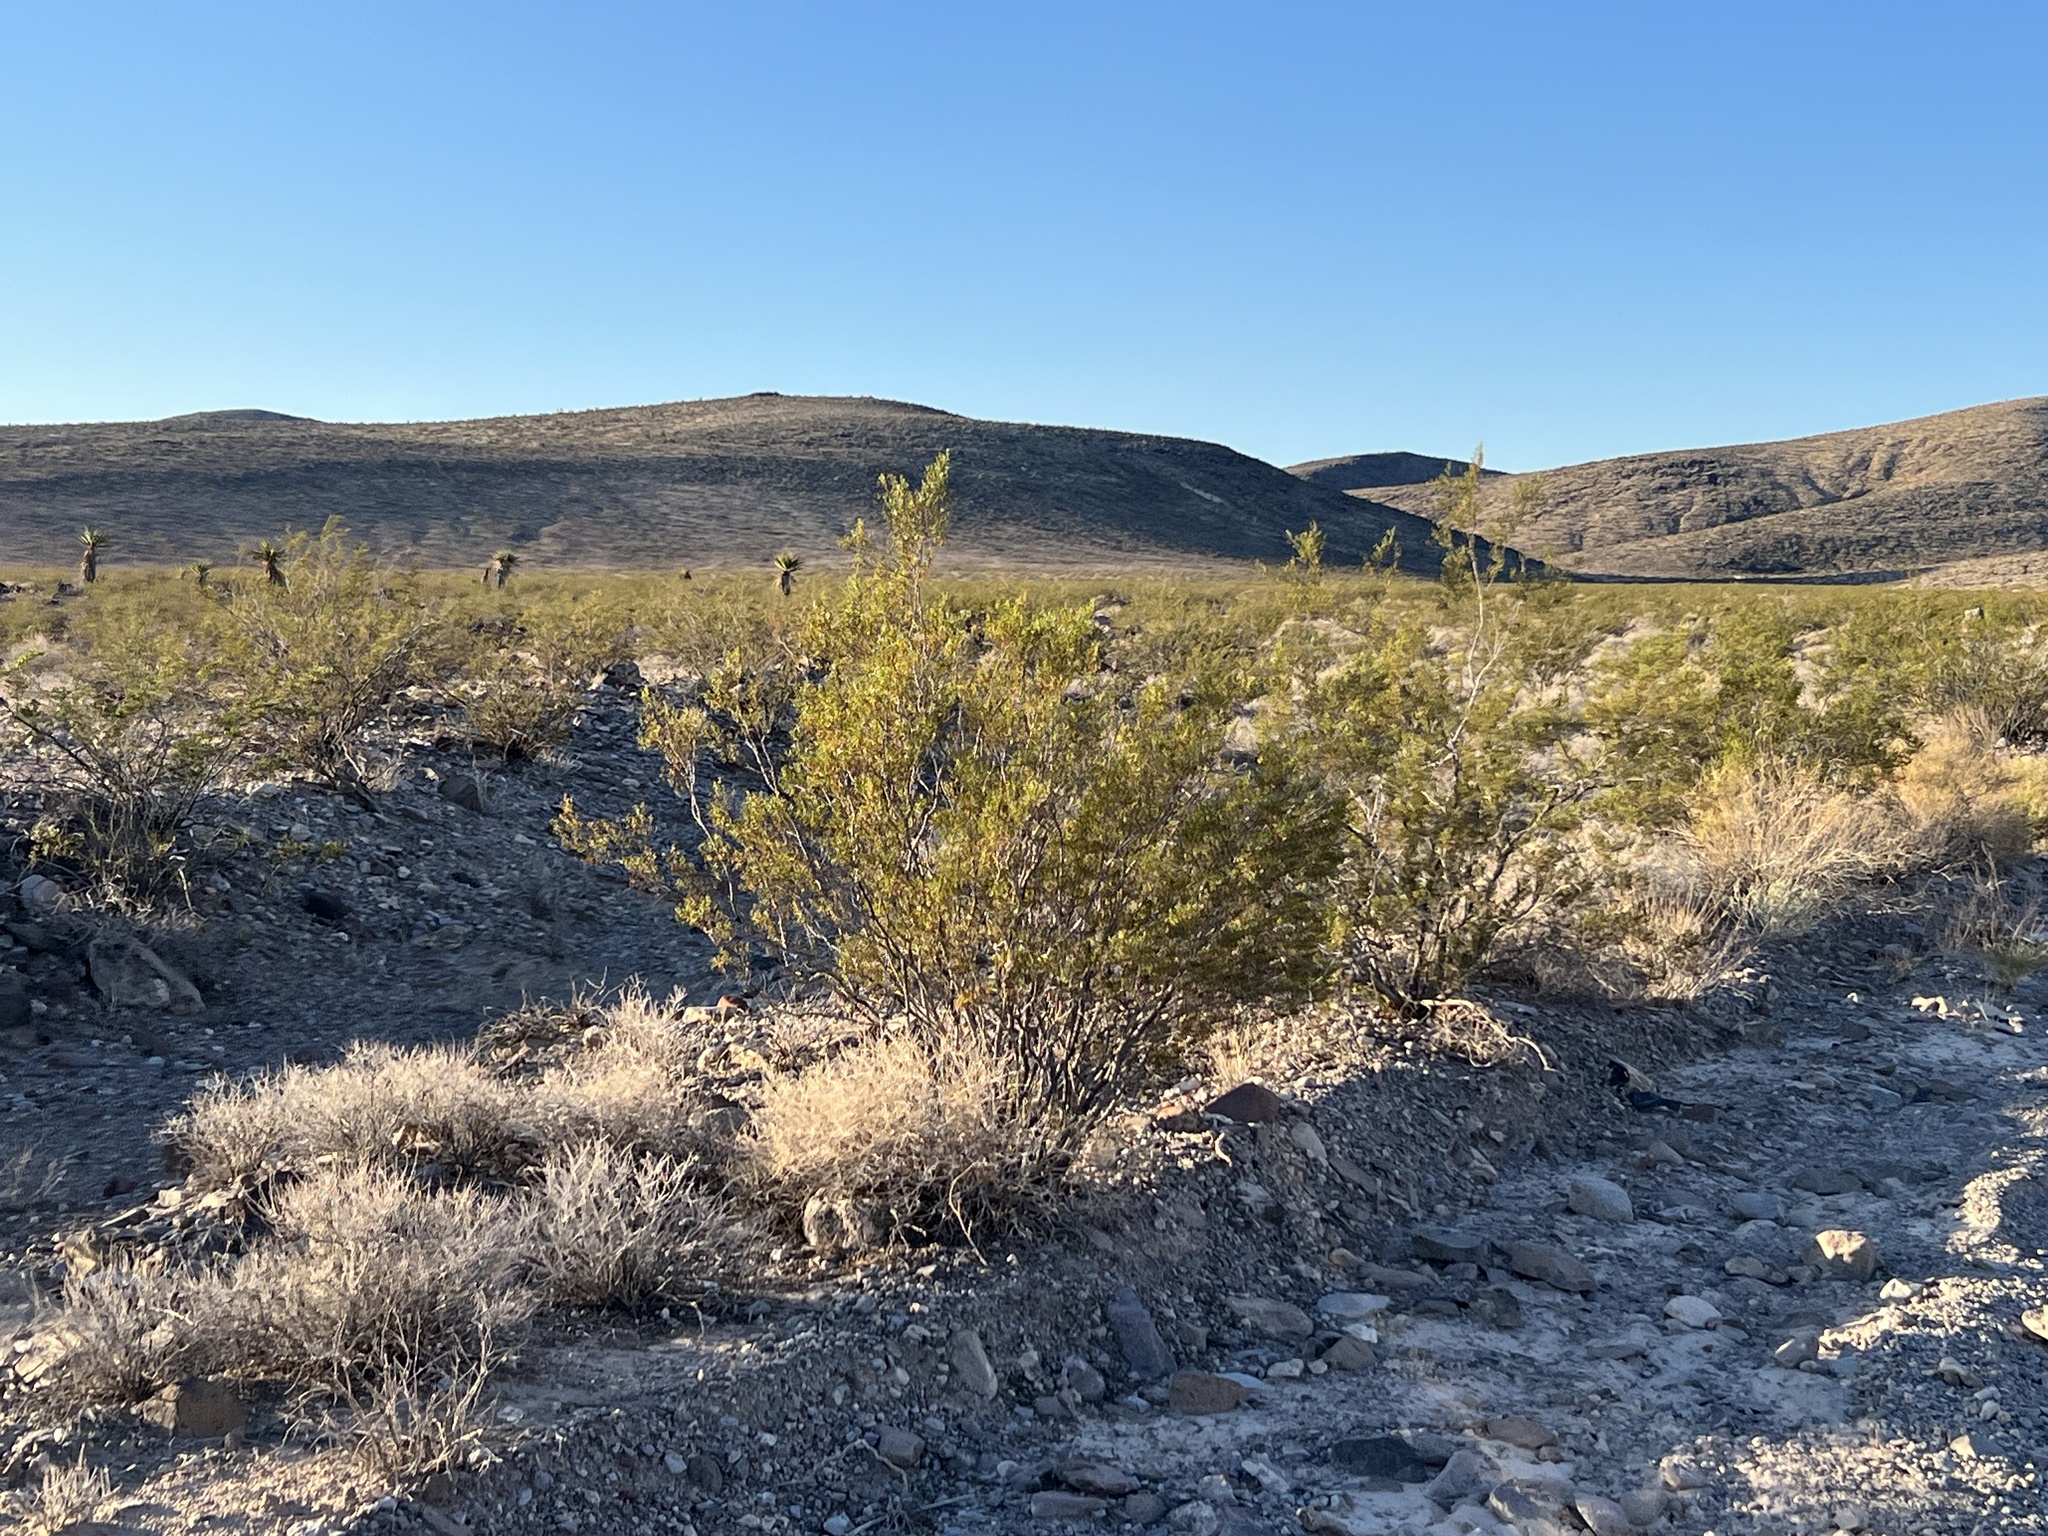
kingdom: Plantae
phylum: Tracheophyta
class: Magnoliopsida
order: Zygophyllales
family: Zygophyllaceae
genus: Larrea
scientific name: Larrea tridentata
